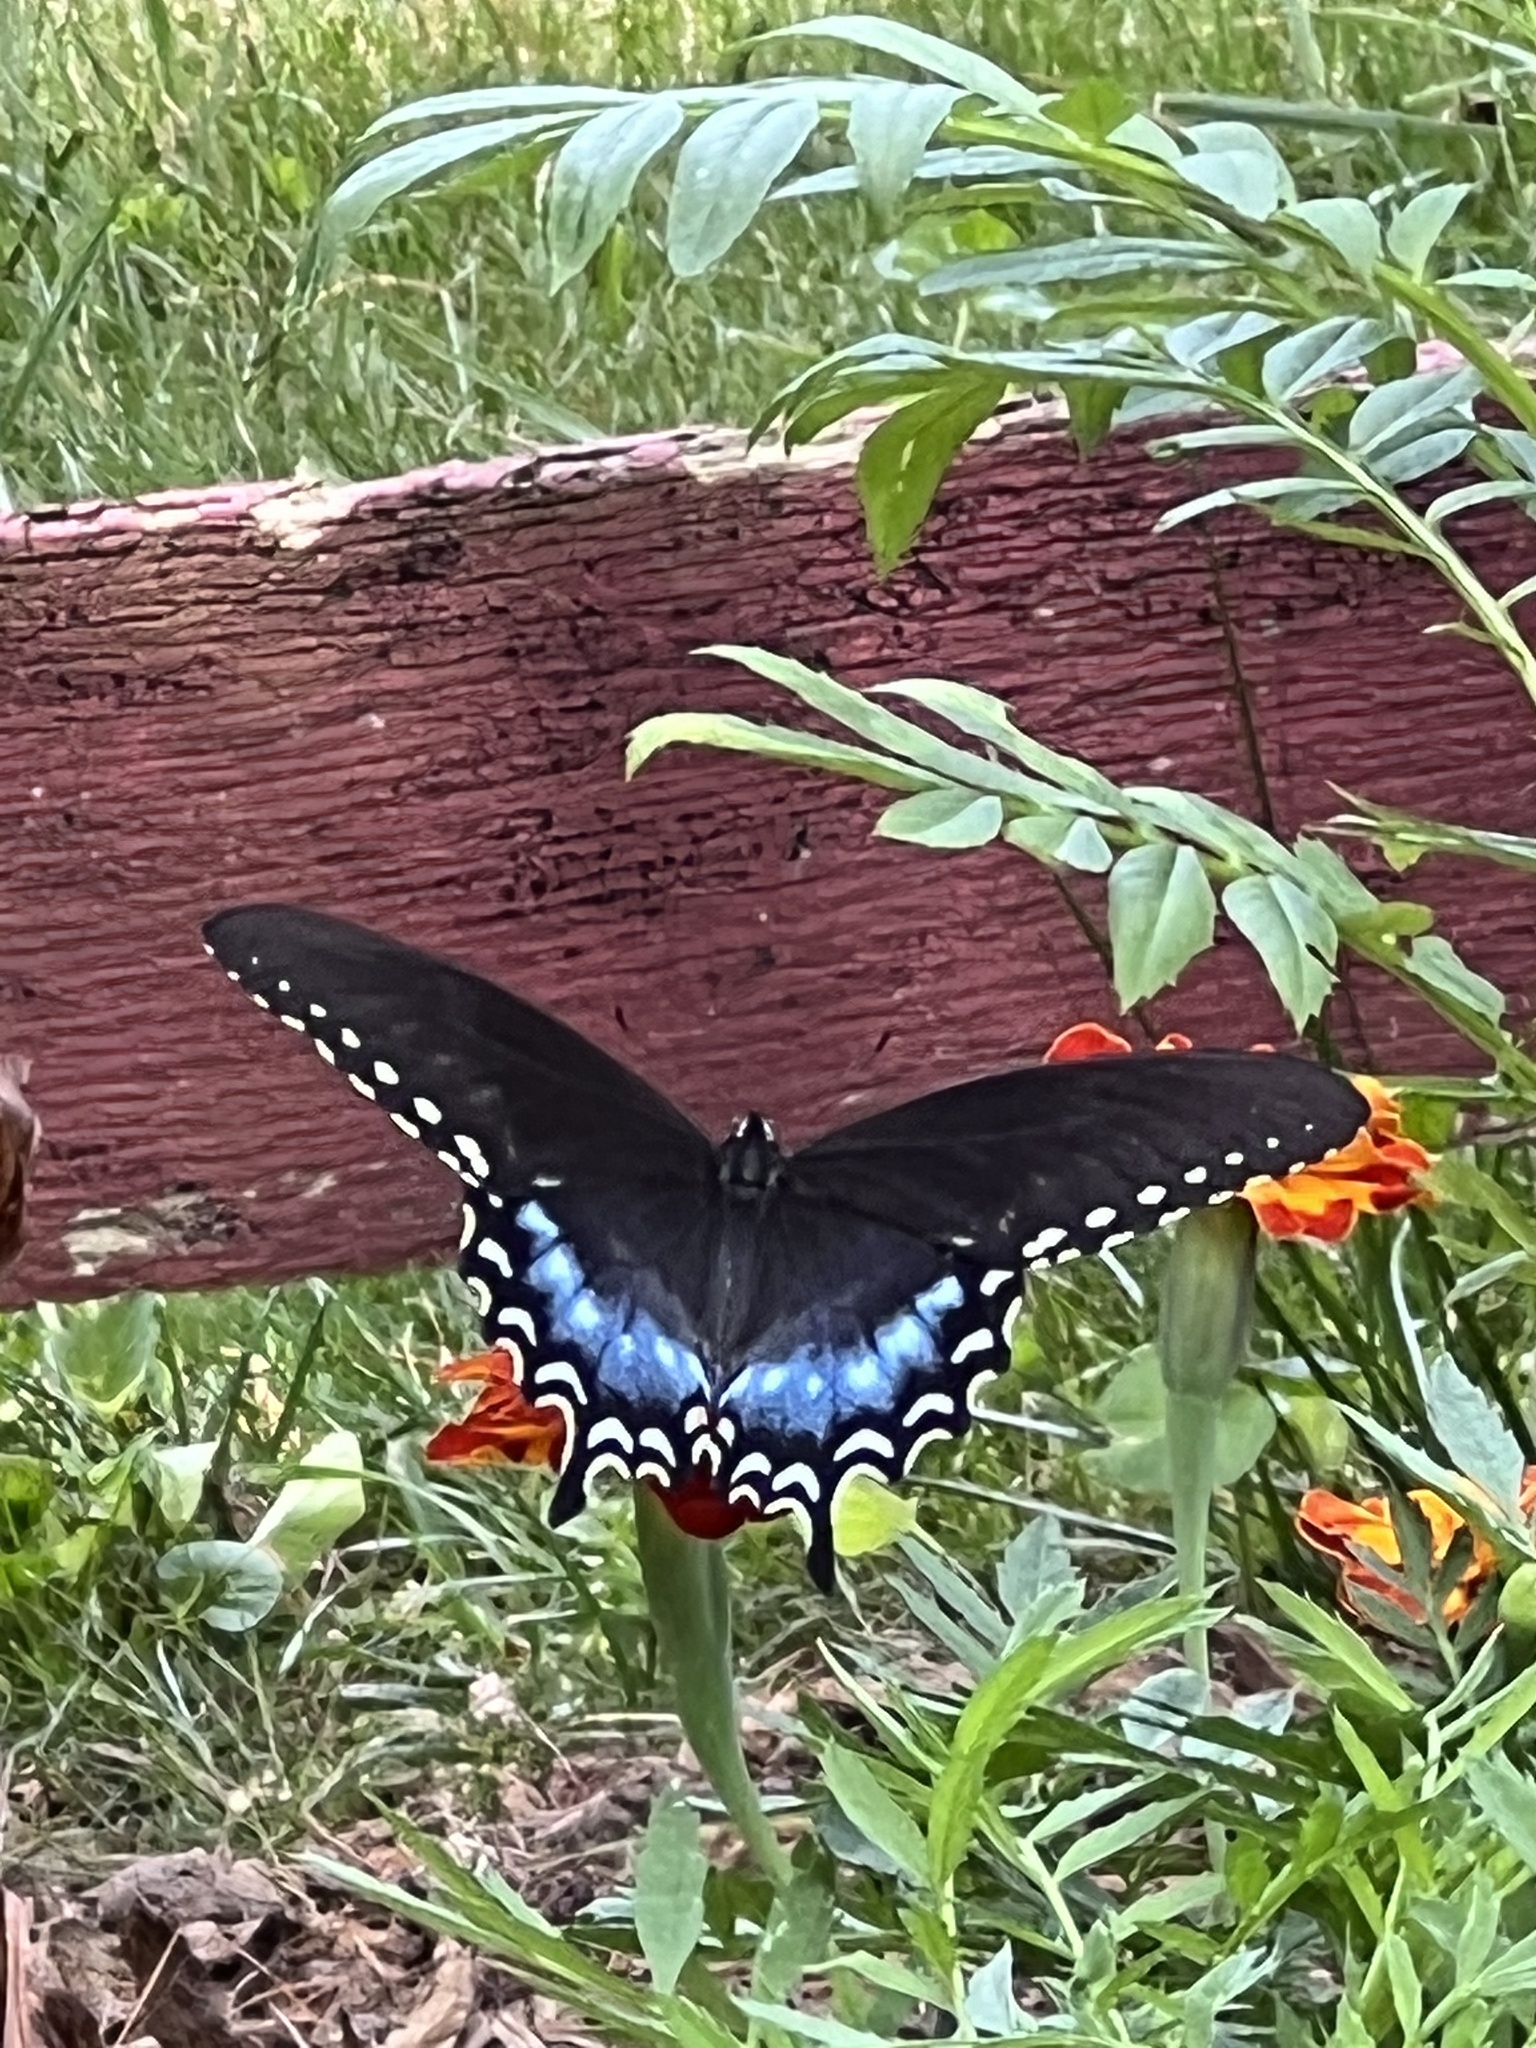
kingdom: Animalia
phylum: Arthropoda
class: Insecta
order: Lepidoptera
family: Papilionidae
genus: Papilio
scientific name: Papilio troilus
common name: Spicebush swallowtail
